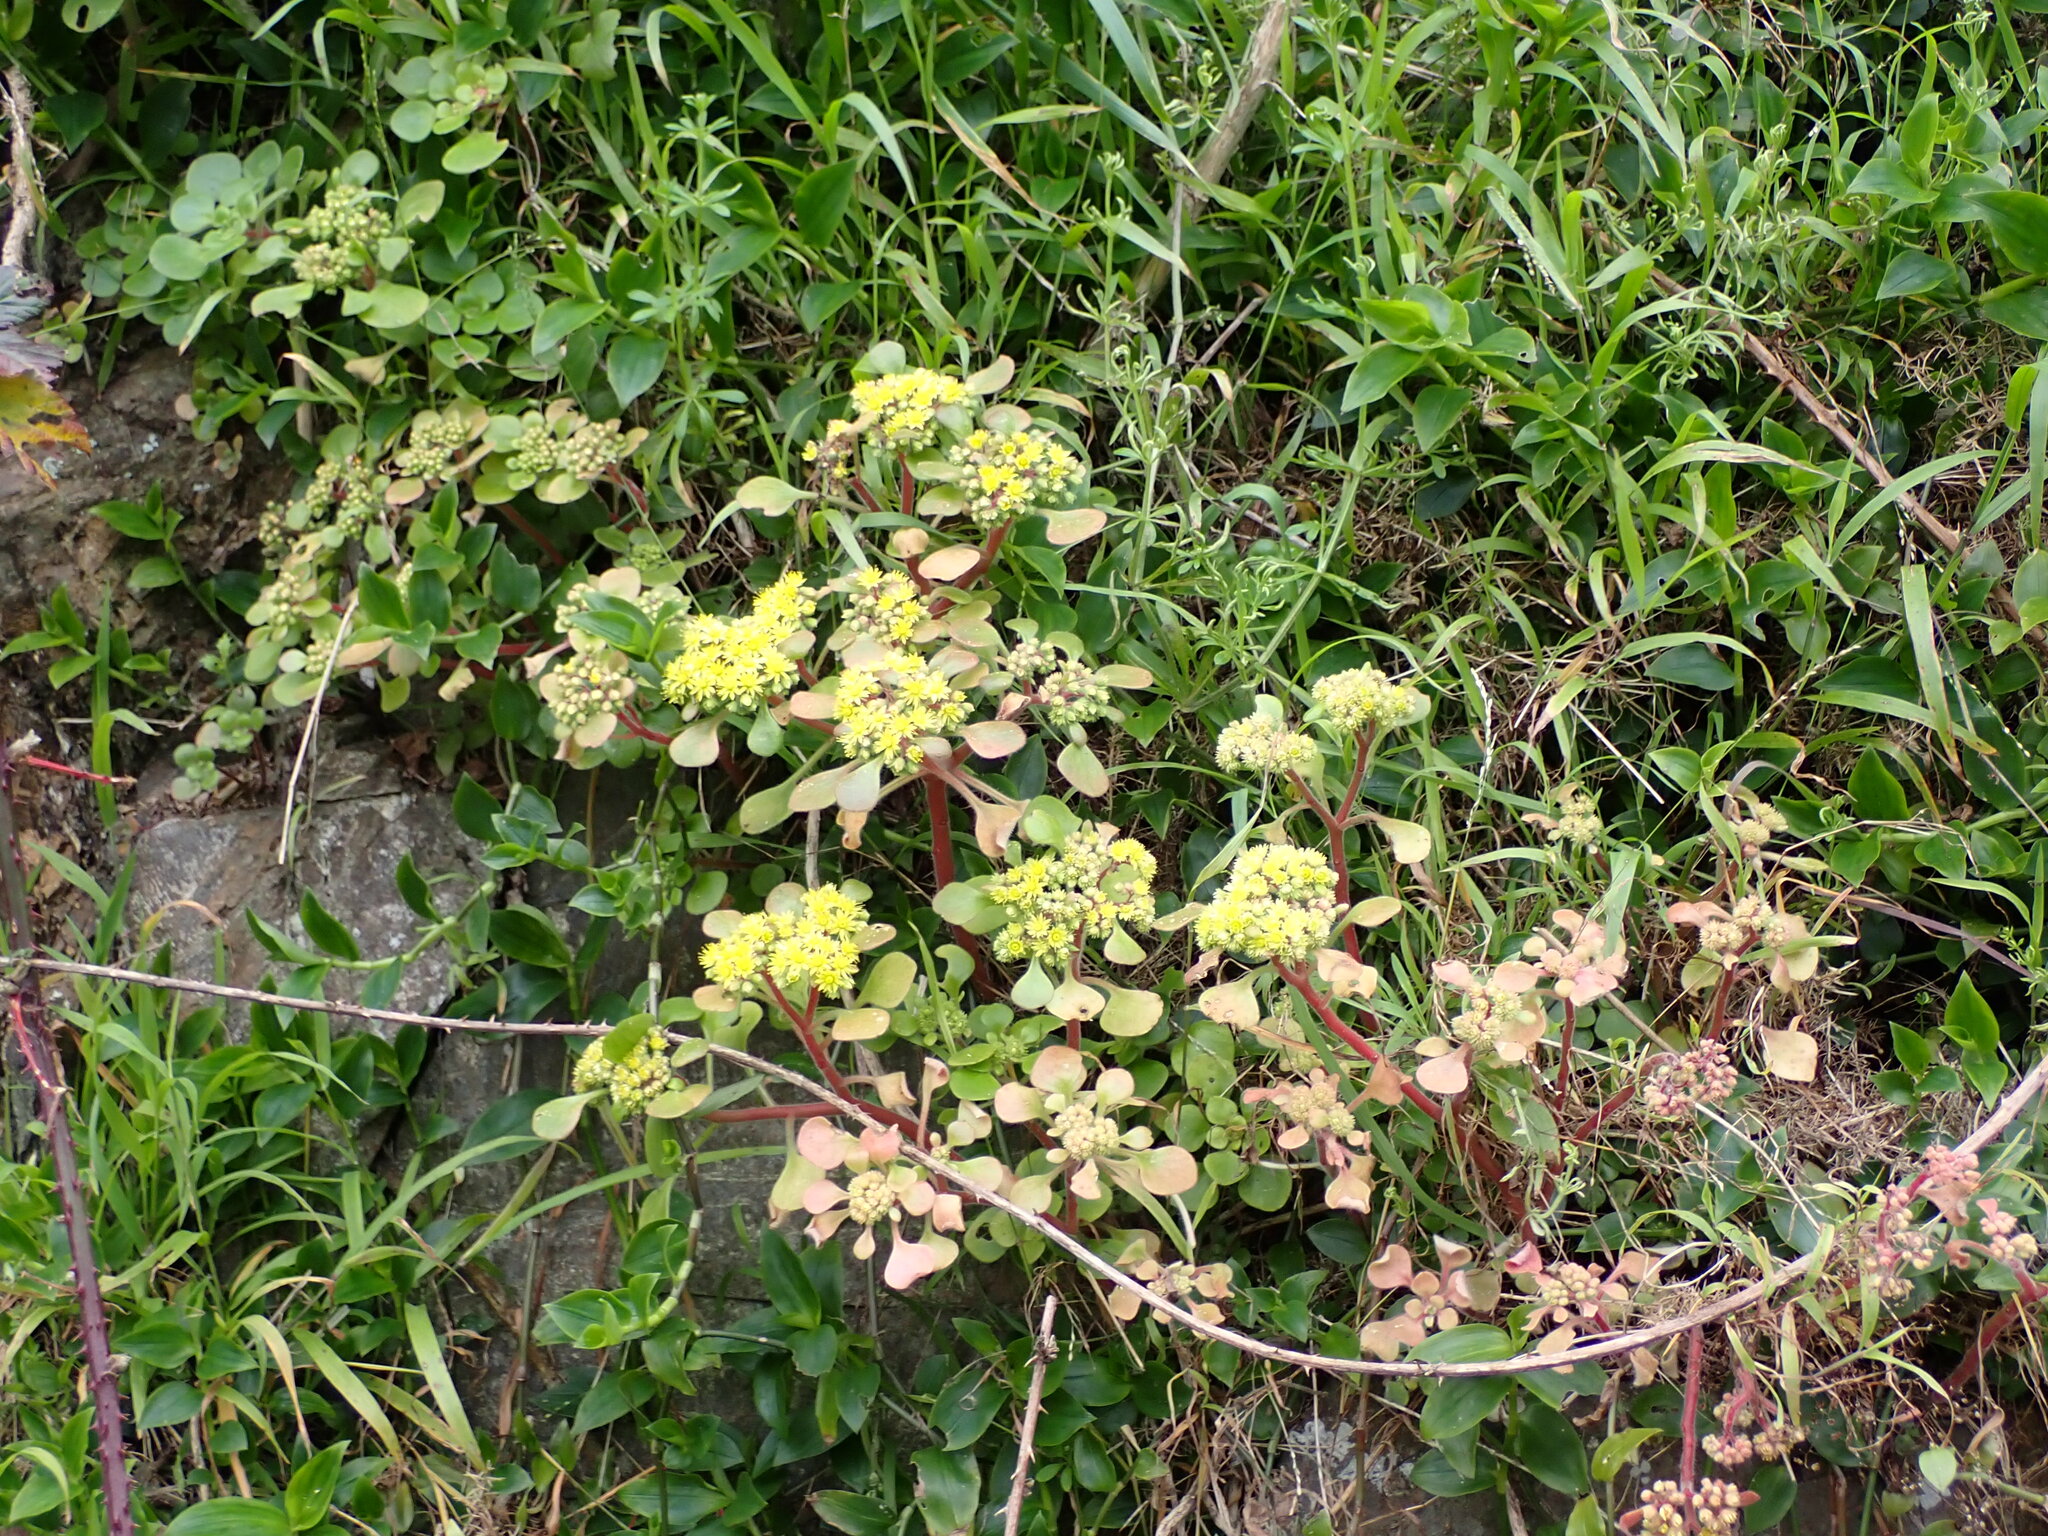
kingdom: Plantae
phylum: Tracheophyta
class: Magnoliopsida
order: Saxifragales
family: Crassulaceae
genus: Aichryson
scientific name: Aichryson laxum
